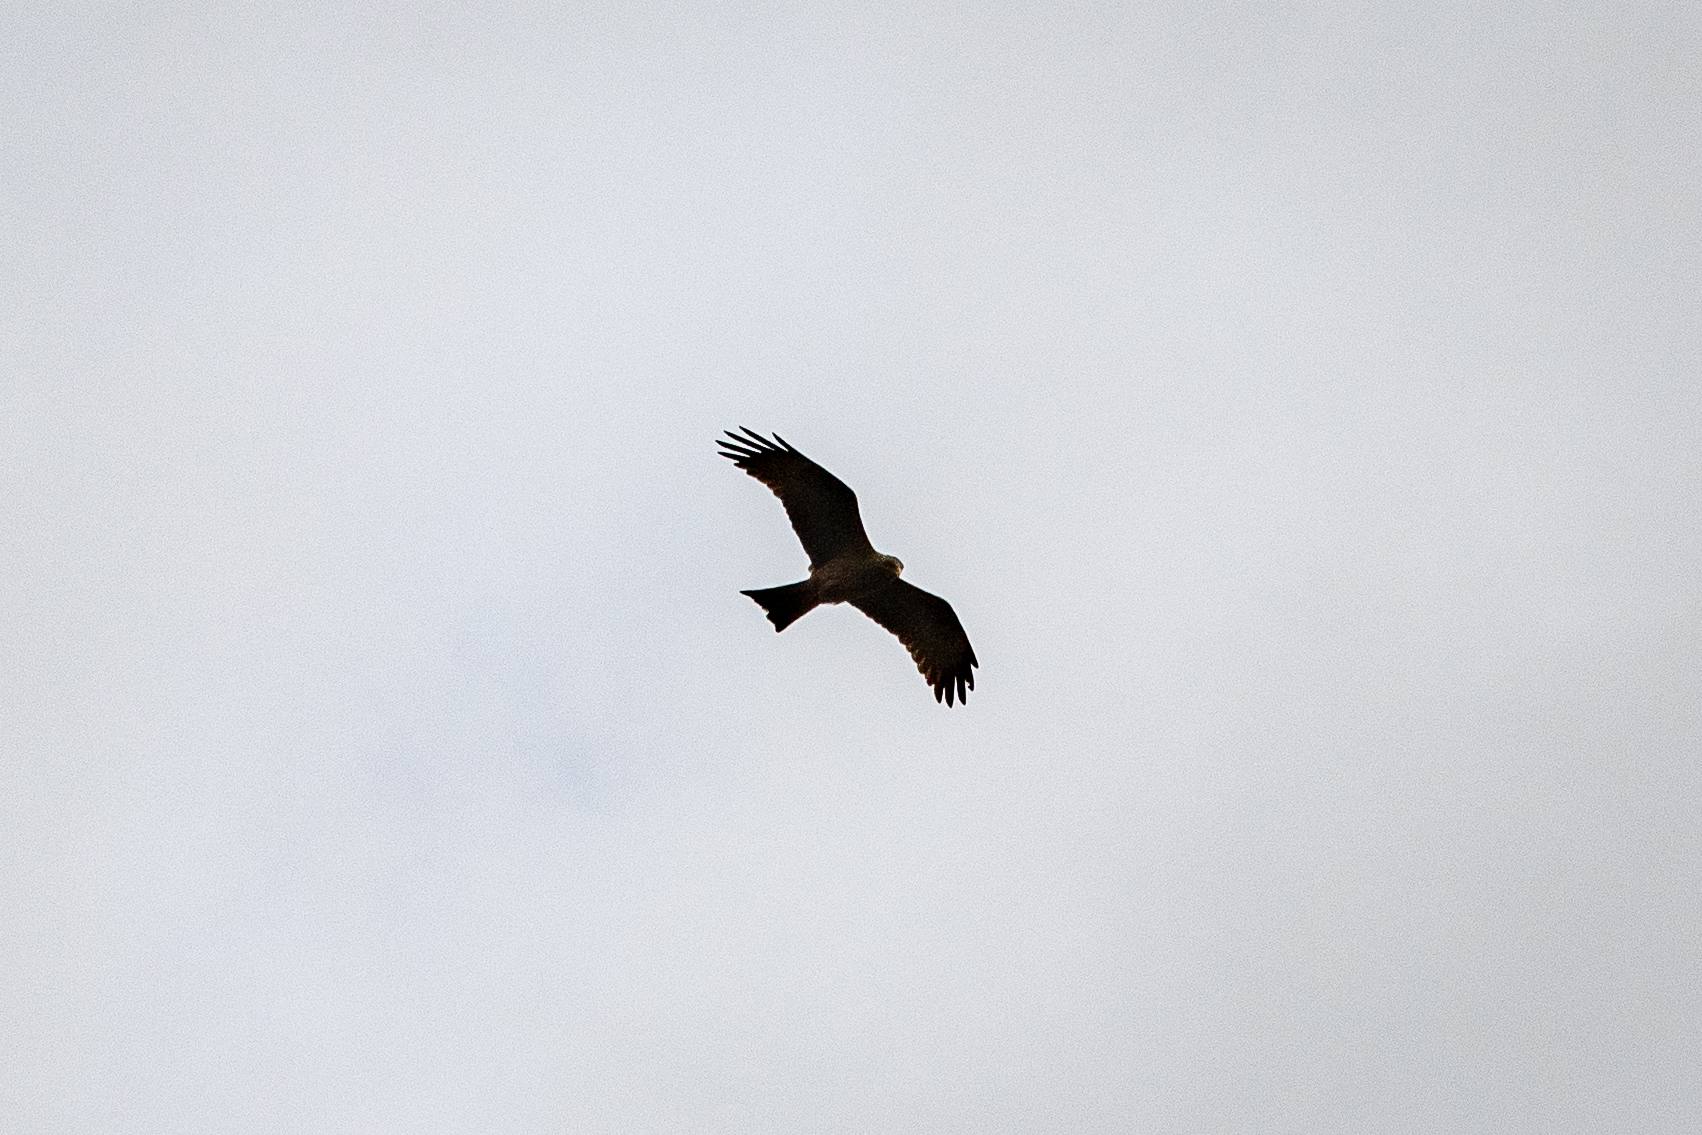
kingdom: Animalia
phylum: Chordata
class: Aves
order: Accipitriformes
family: Accipitridae
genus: Milvus
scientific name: Milvus migrans
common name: Black kite
